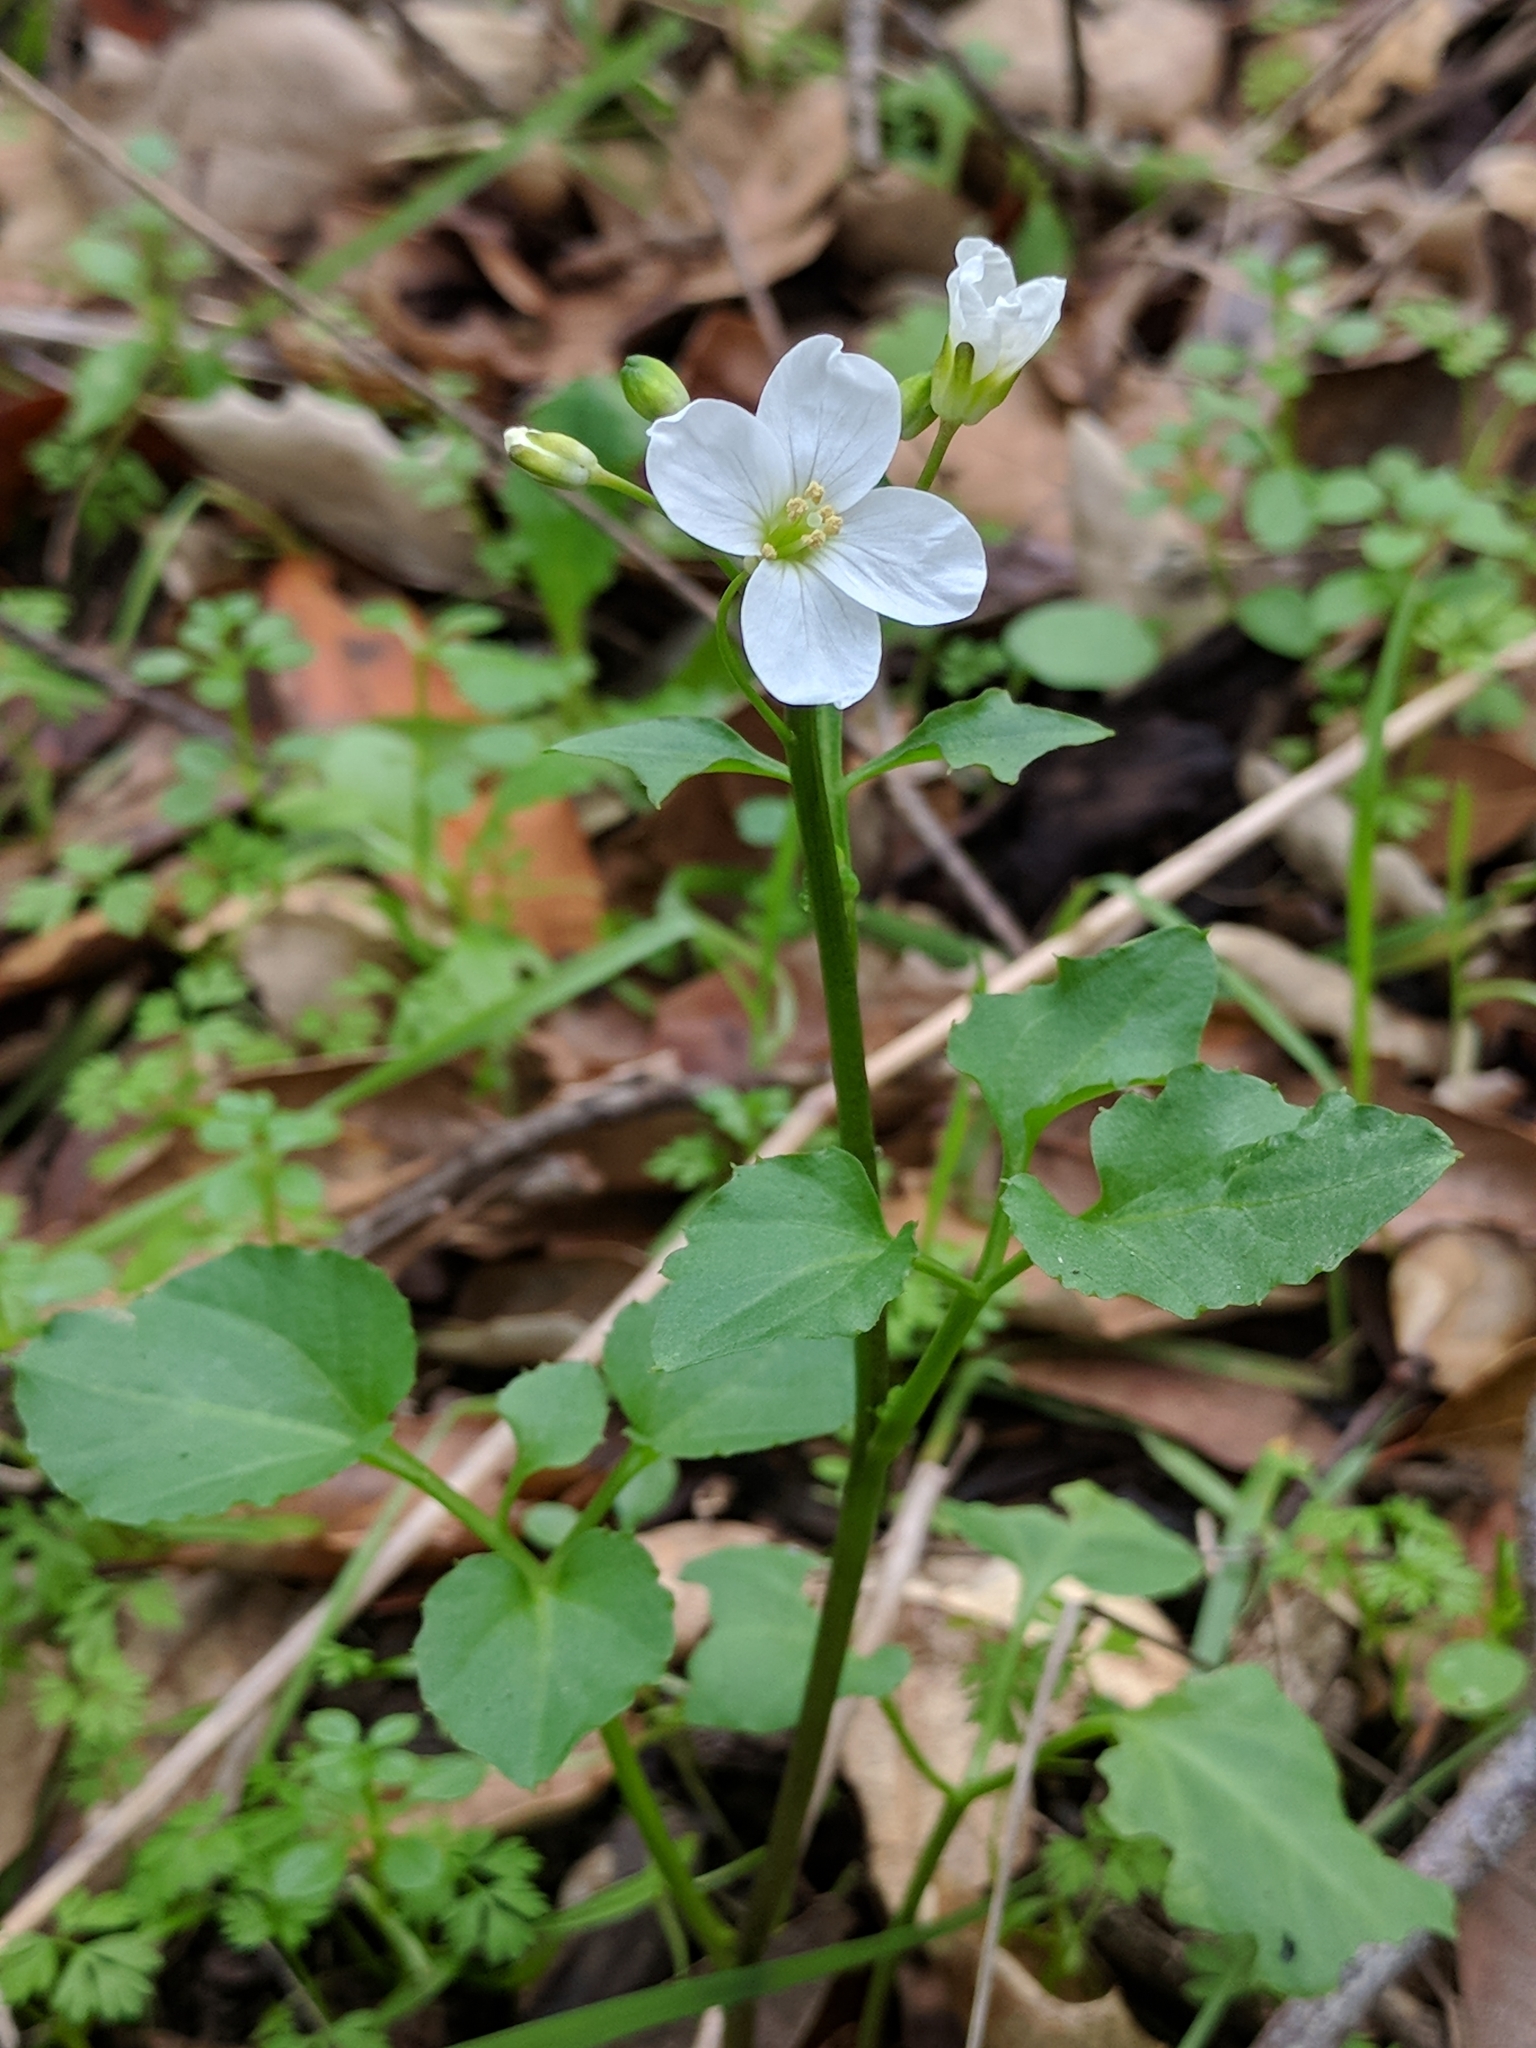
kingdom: Plantae
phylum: Tracheophyta
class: Magnoliopsida
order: Brassicales
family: Brassicaceae
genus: Cardamine
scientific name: Cardamine californica
